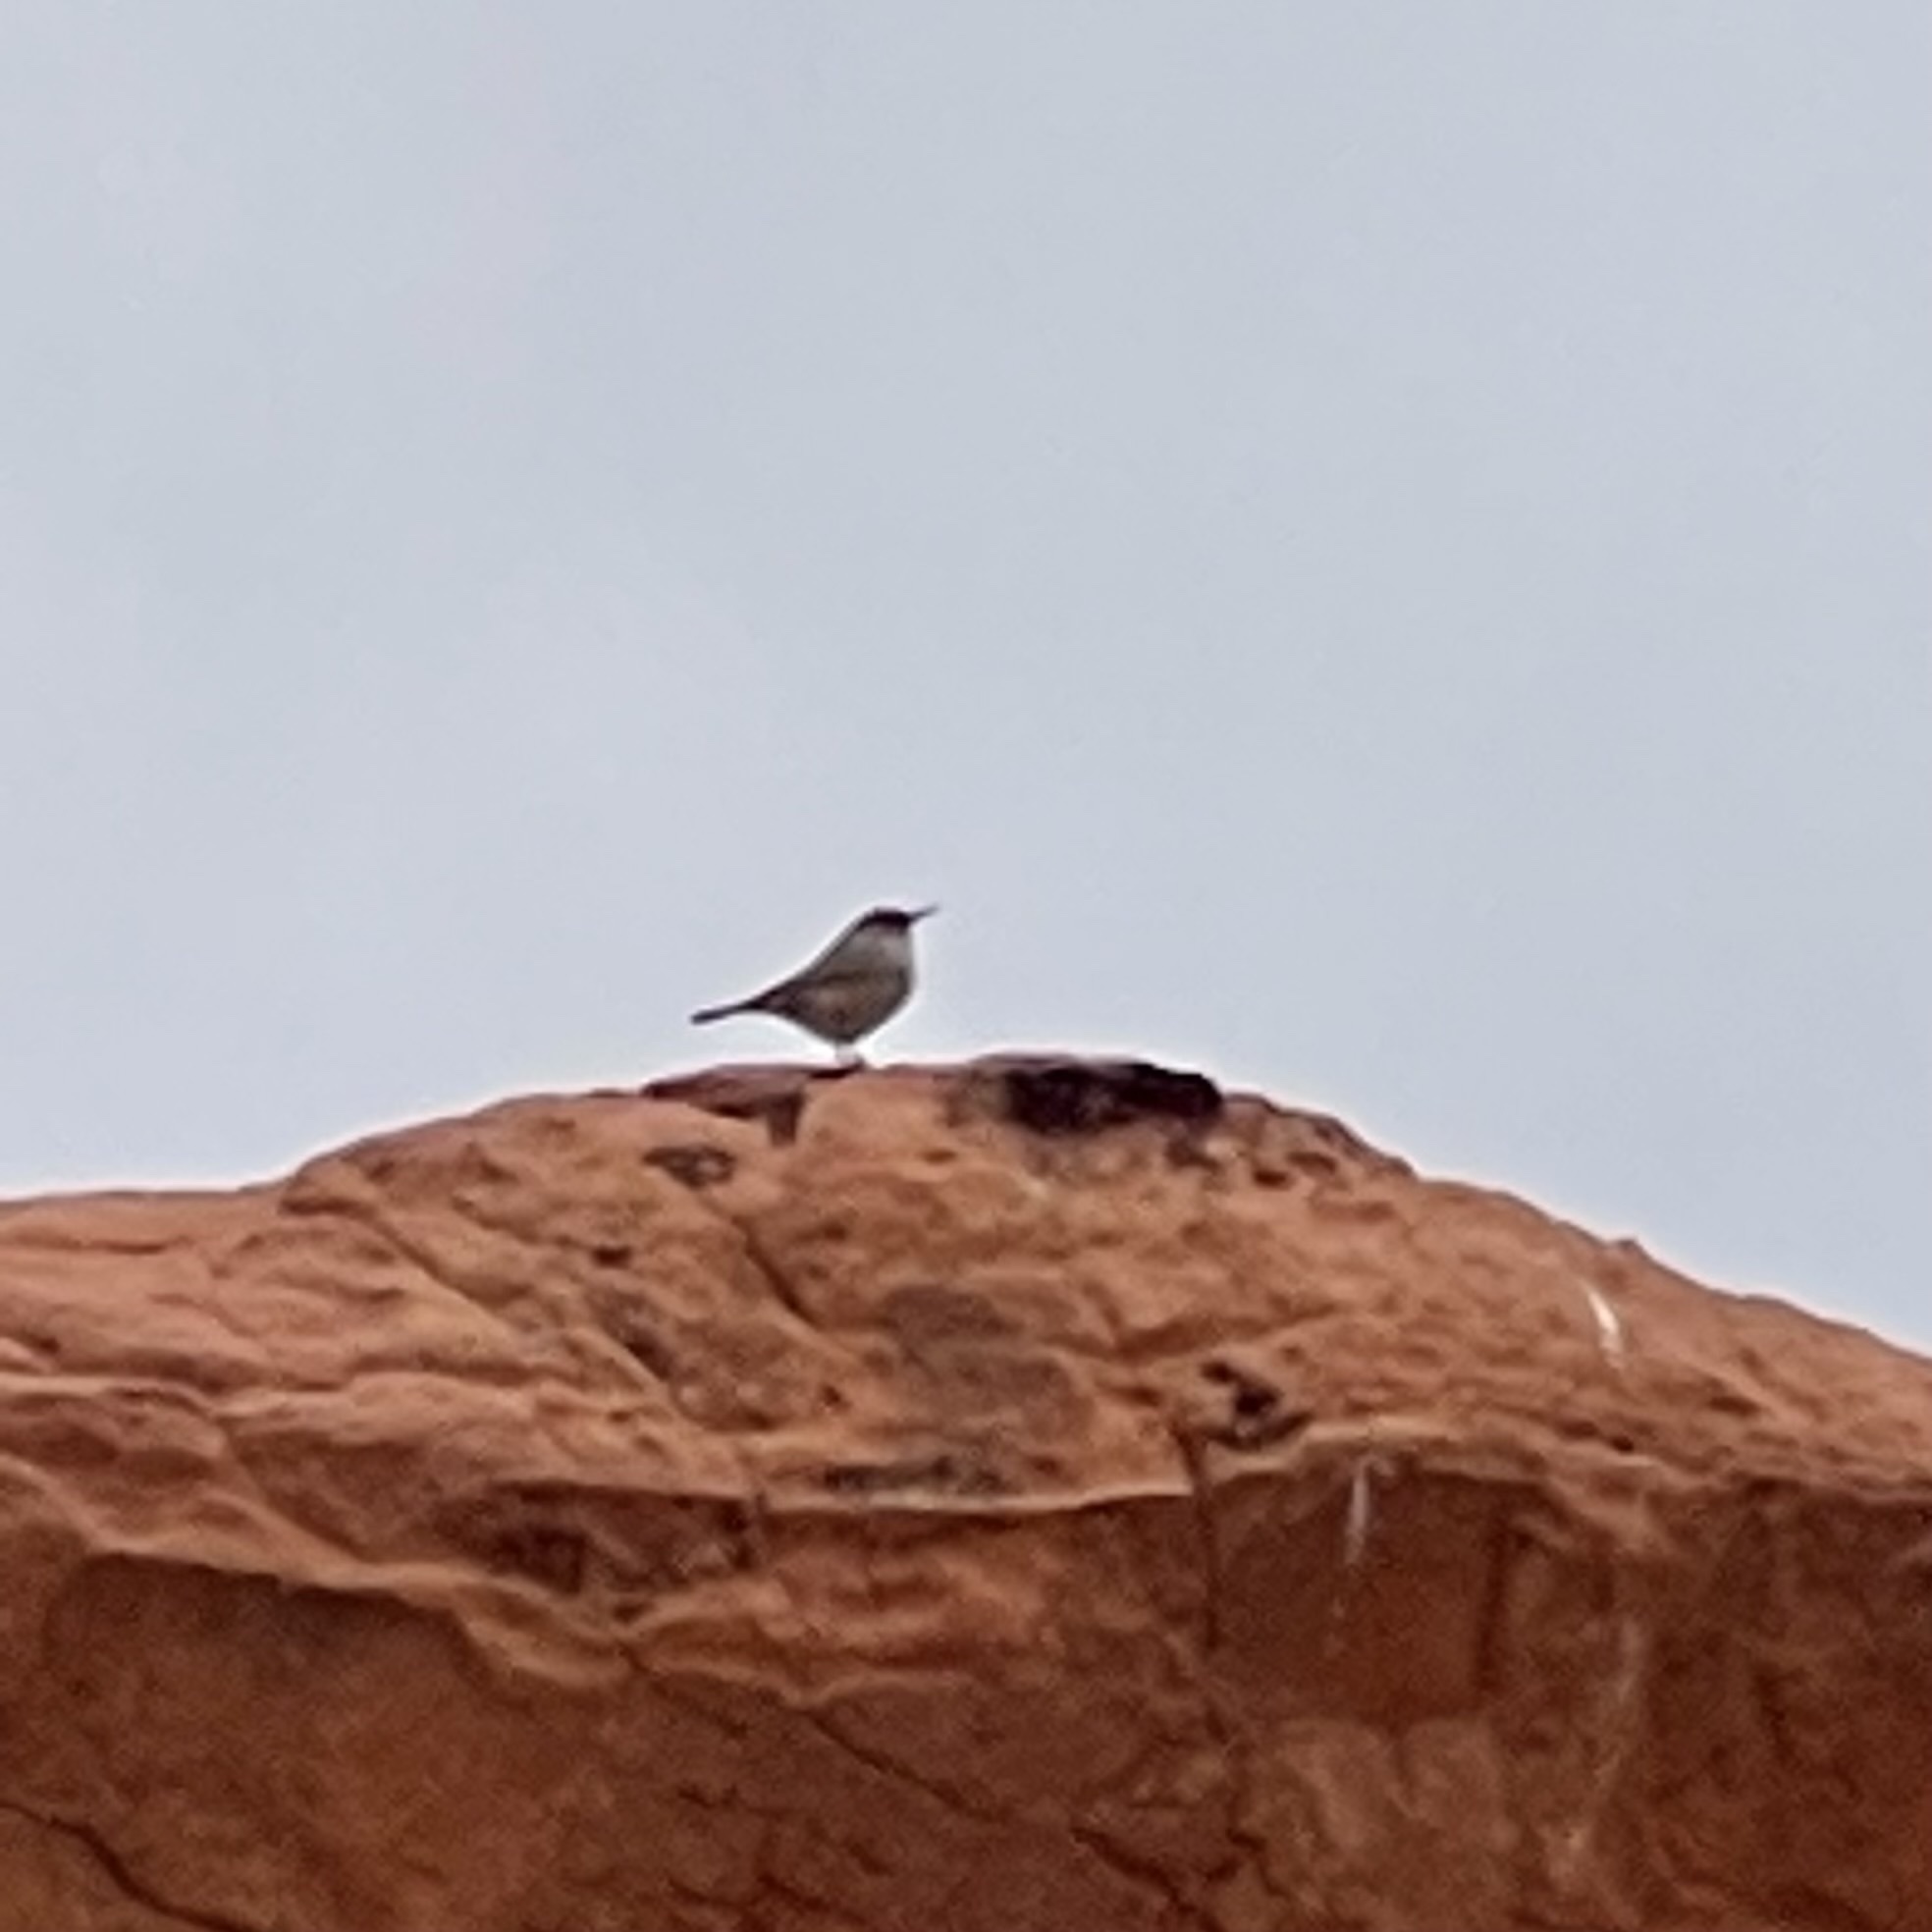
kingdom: Animalia
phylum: Chordata
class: Aves
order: Passeriformes
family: Troglodytidae
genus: Salpinctes
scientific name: Salpinctes obsoletus
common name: Rock wren
